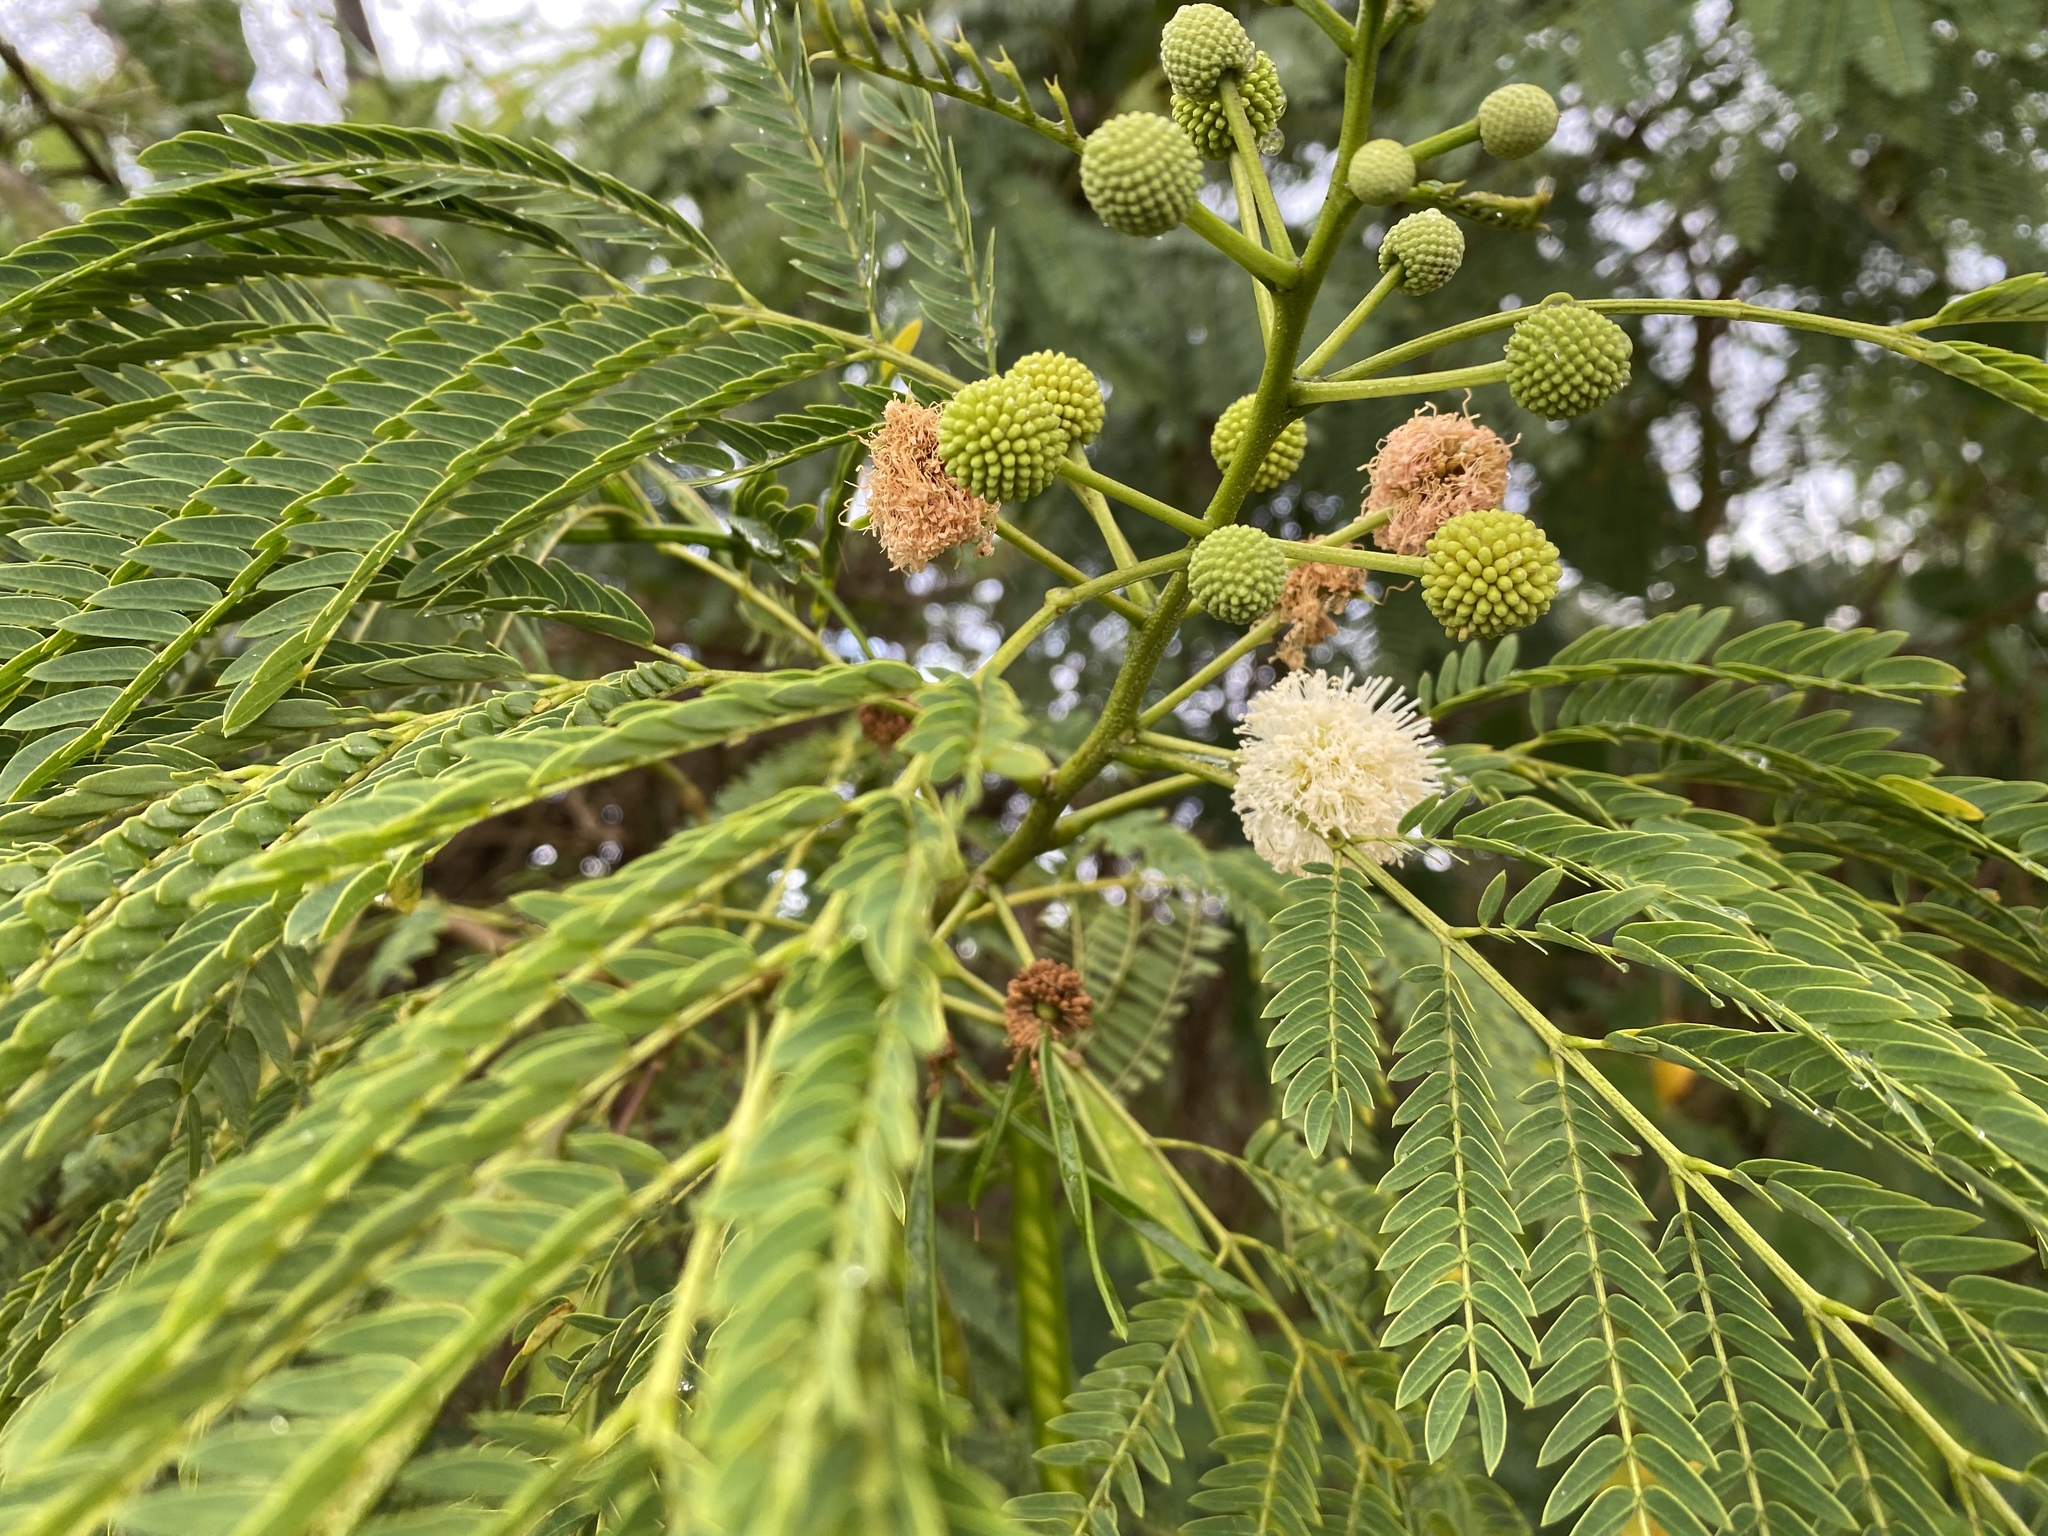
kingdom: Plantae
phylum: Tracheophyta
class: Magnoliopsida
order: Fabales
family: Fabaceae
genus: Leucaena
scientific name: Leucaena leucocephala
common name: White leadtree
